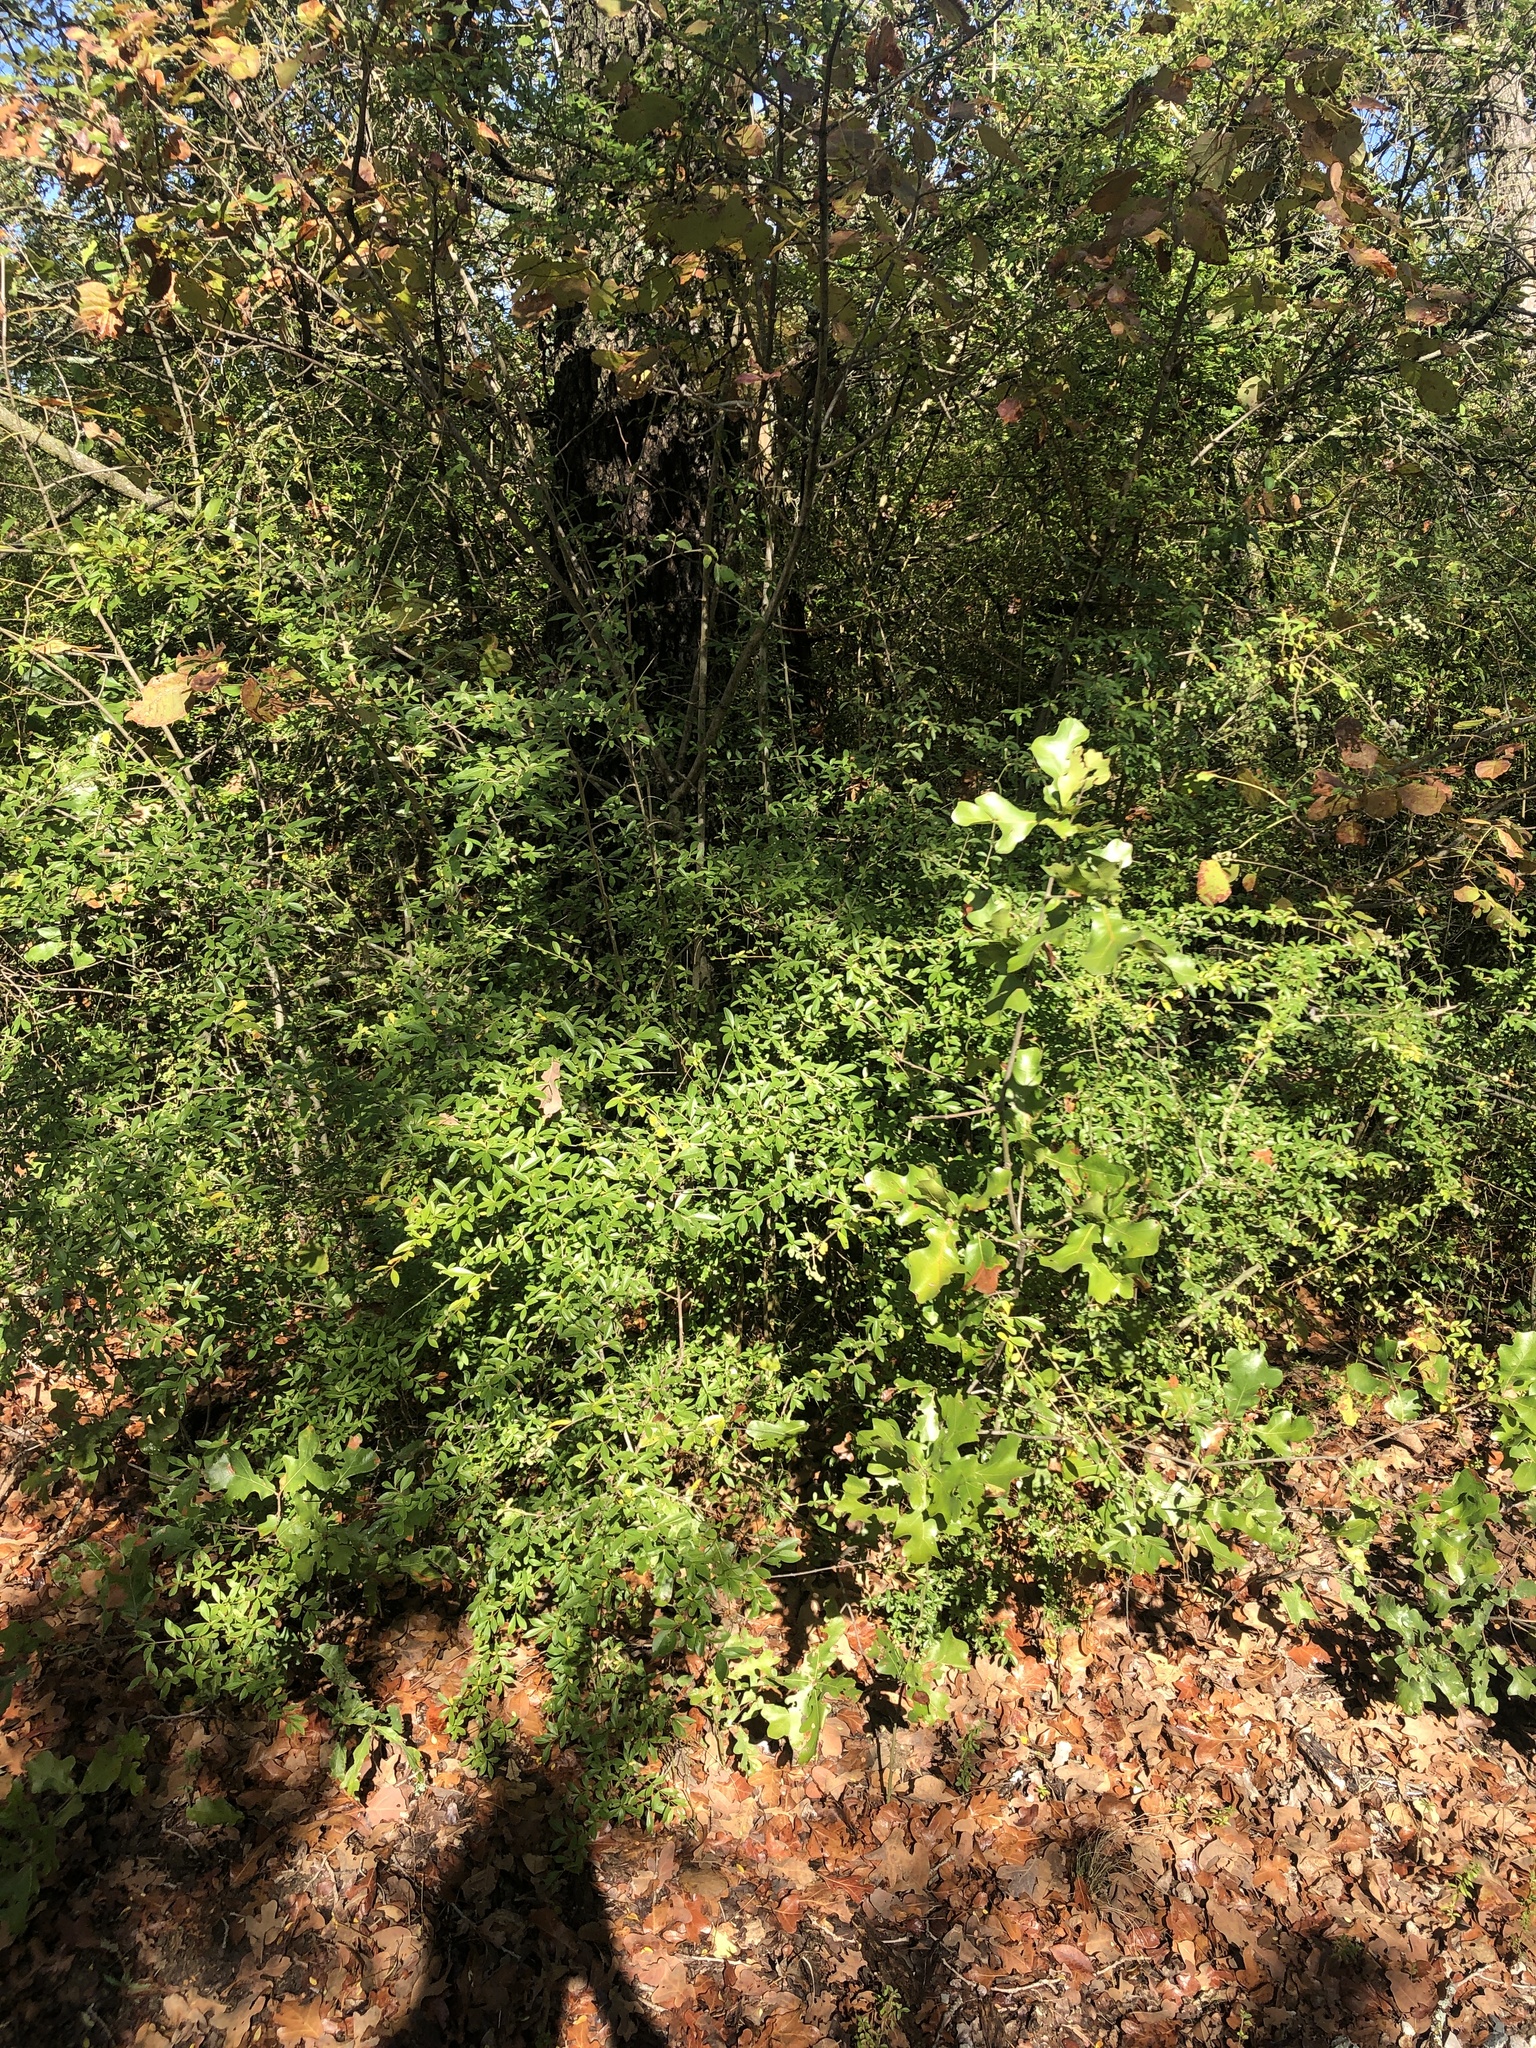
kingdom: Plantae
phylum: Tracheophyta
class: Magnoliopsida
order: Lamiales
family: Oleaceae
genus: Ligustrum
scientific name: Ligustrum quihoui
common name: Waxyleaf privet
